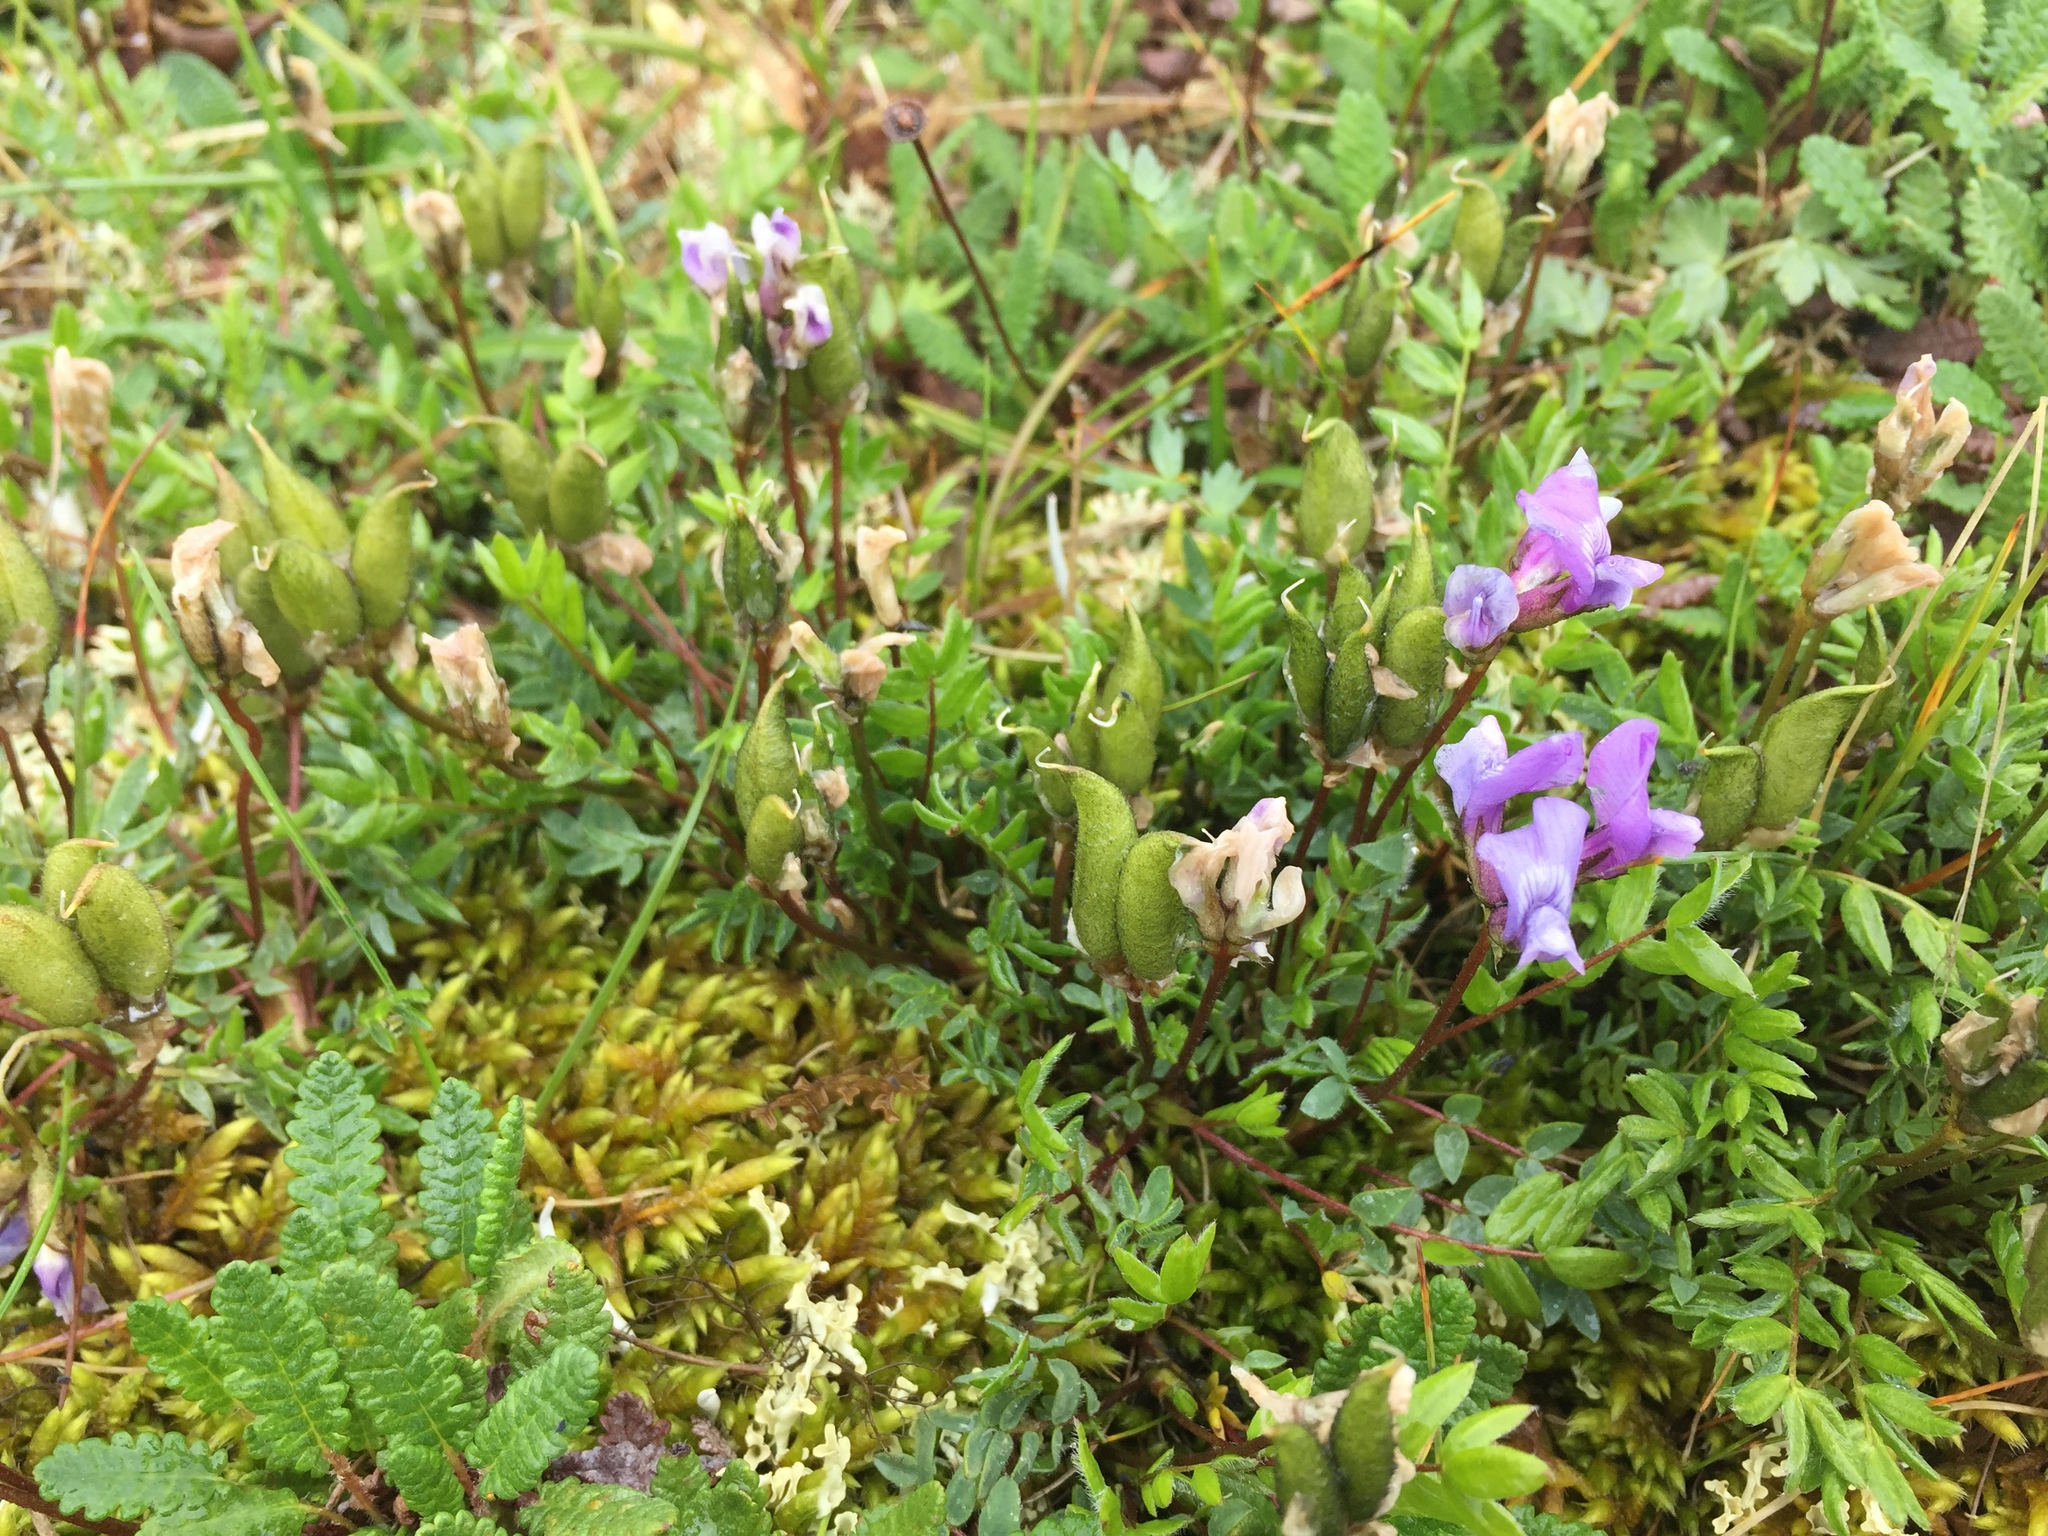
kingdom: Plantae
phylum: Tracheophyta
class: Magnoliopsida
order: Fabales
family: Fabaceae
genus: Oxytropis
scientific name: Oxytropis scammaniana
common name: Scamman's locoweed
